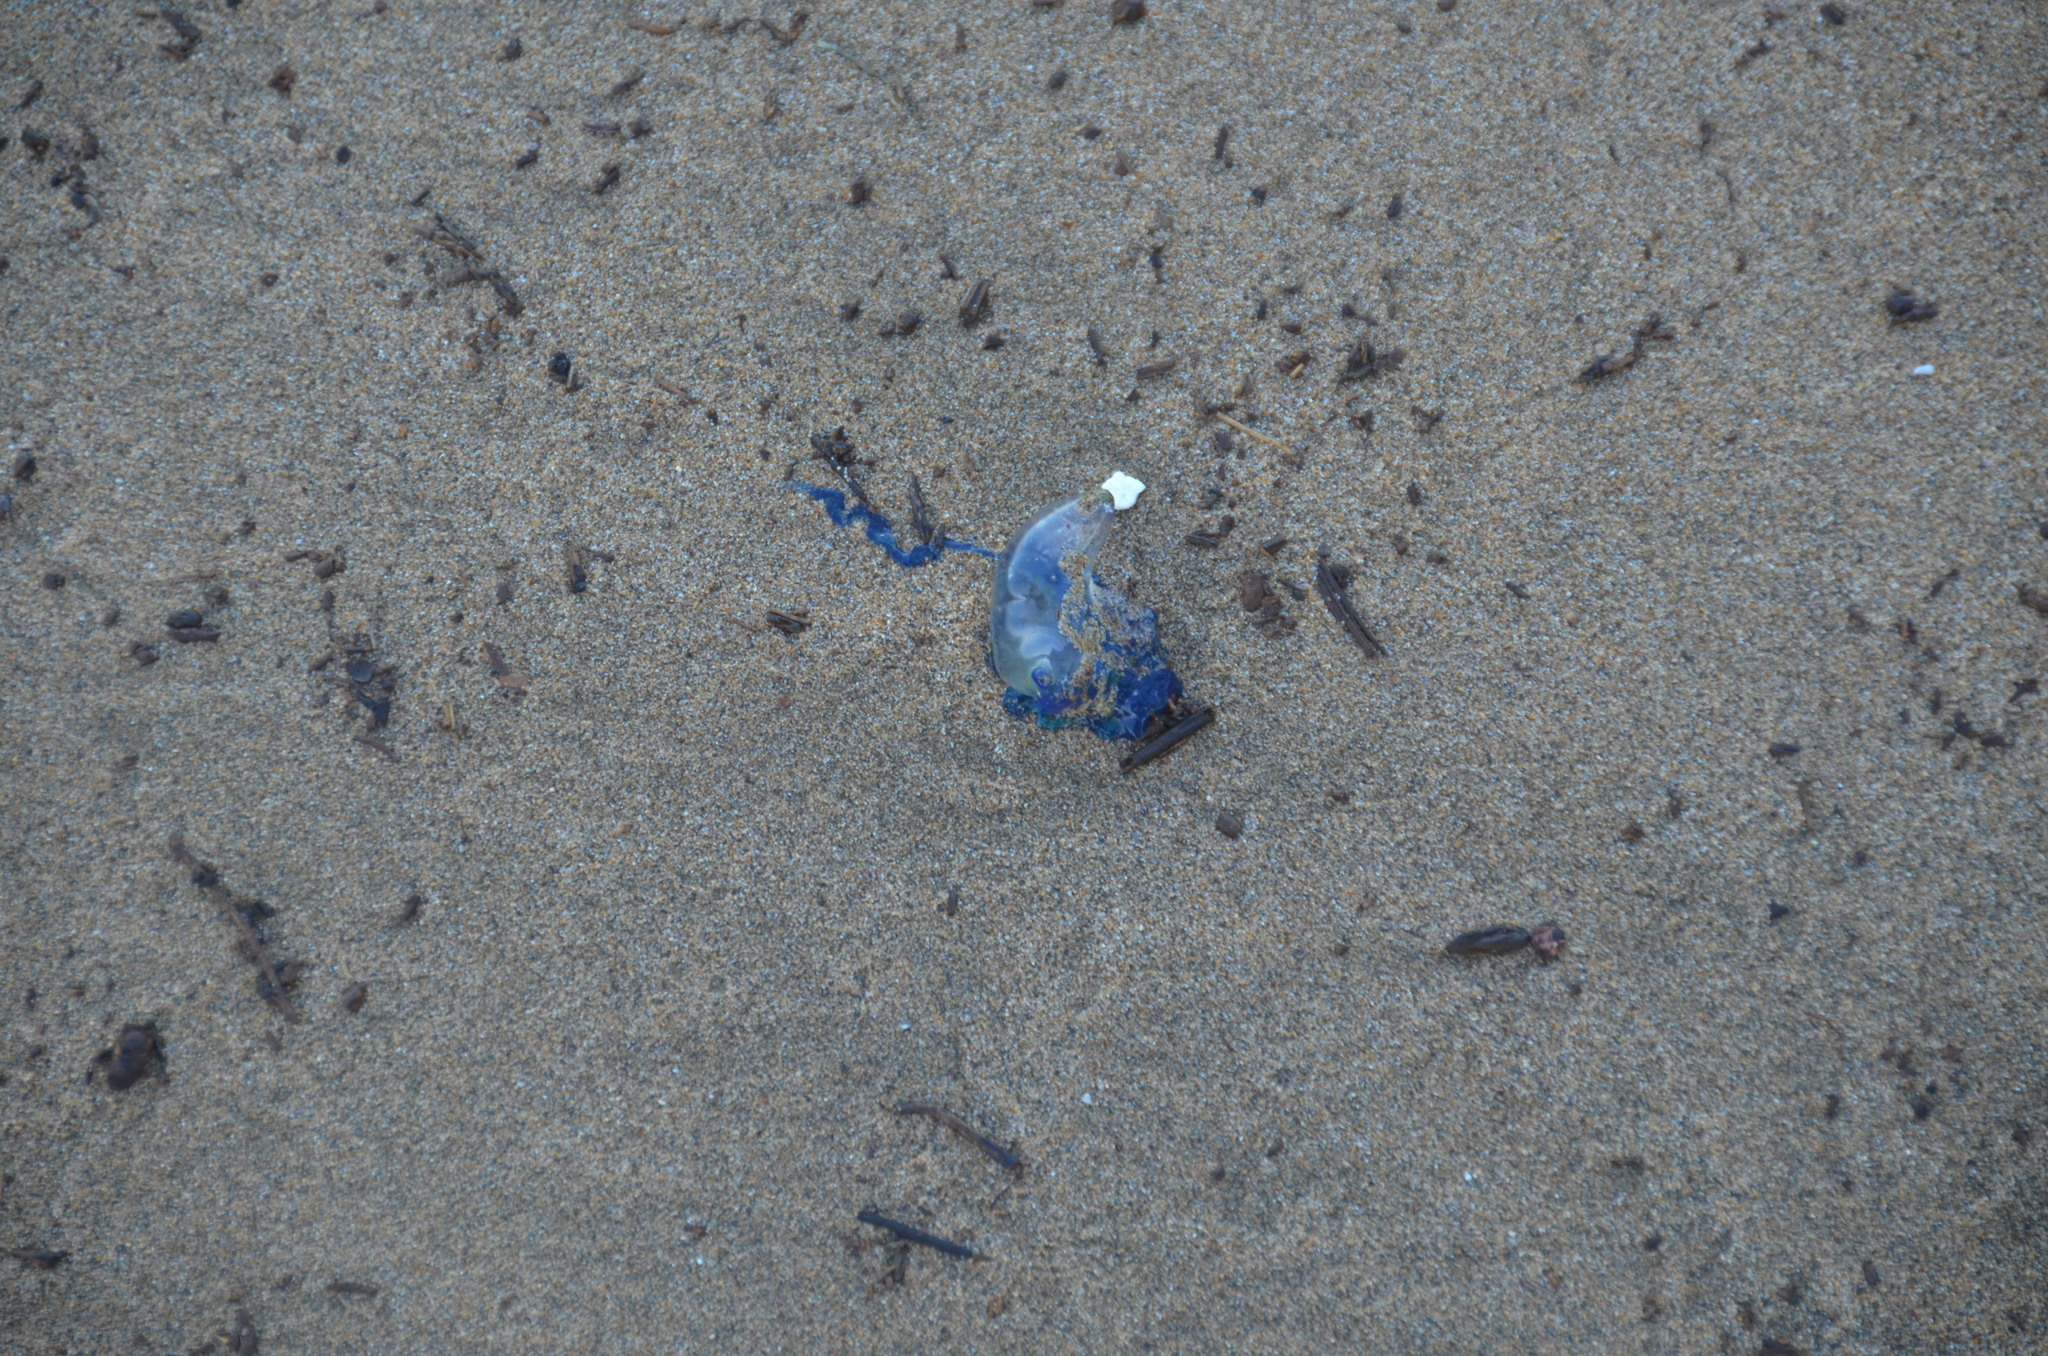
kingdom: Animalia
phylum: Cnidaria
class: Hydrozoa
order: Siphonophorae
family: Physaliidae
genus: Physalia
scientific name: Physalia physalis
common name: Portuguese man-of-war
